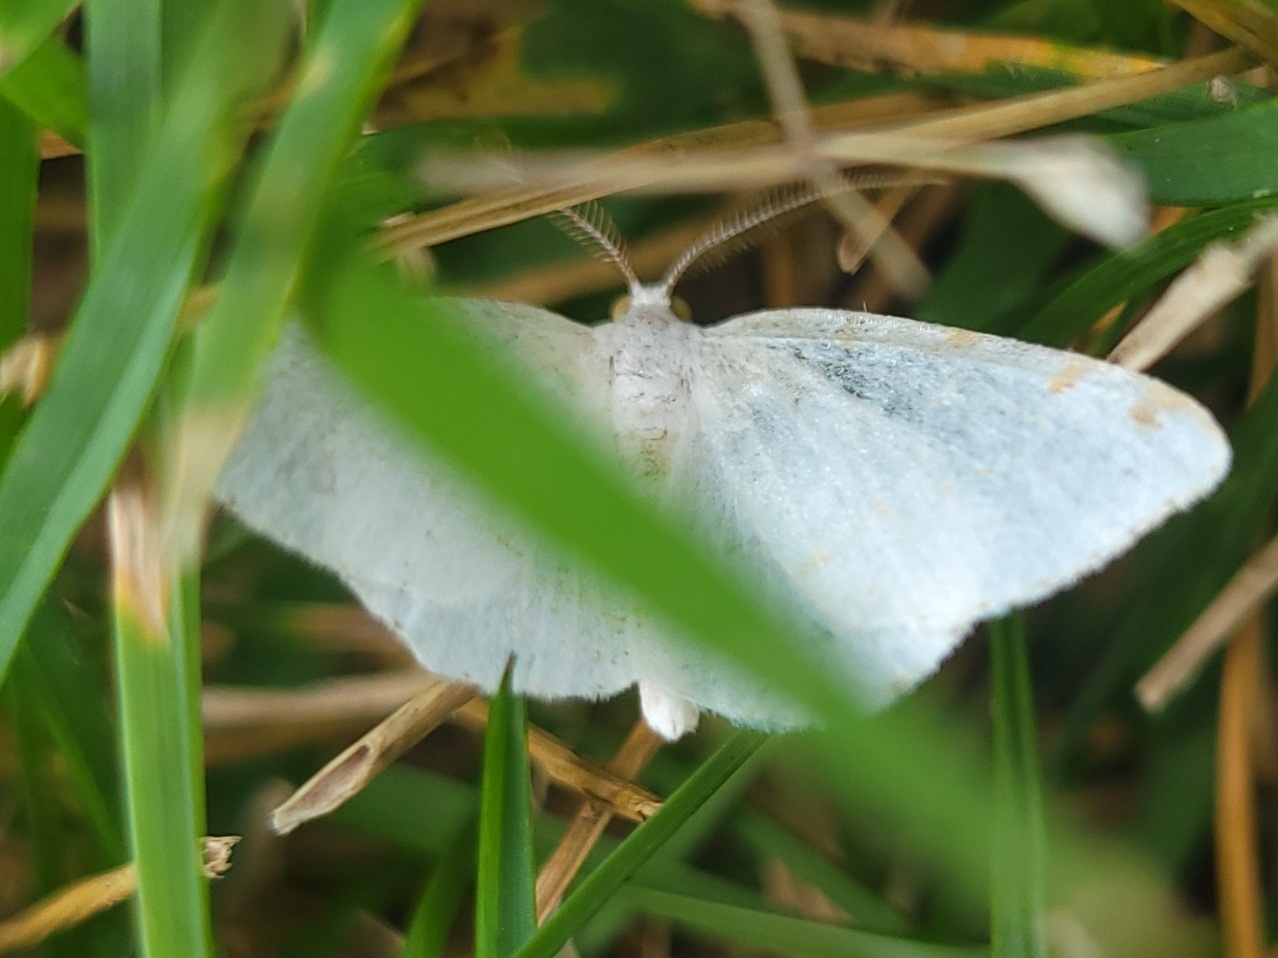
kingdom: Animalia
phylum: Arthropoda
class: Insecta
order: Lepidoptera
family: Geometridae
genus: Macaria
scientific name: Macaria pustularia
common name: Lesser maple spanworm moth
